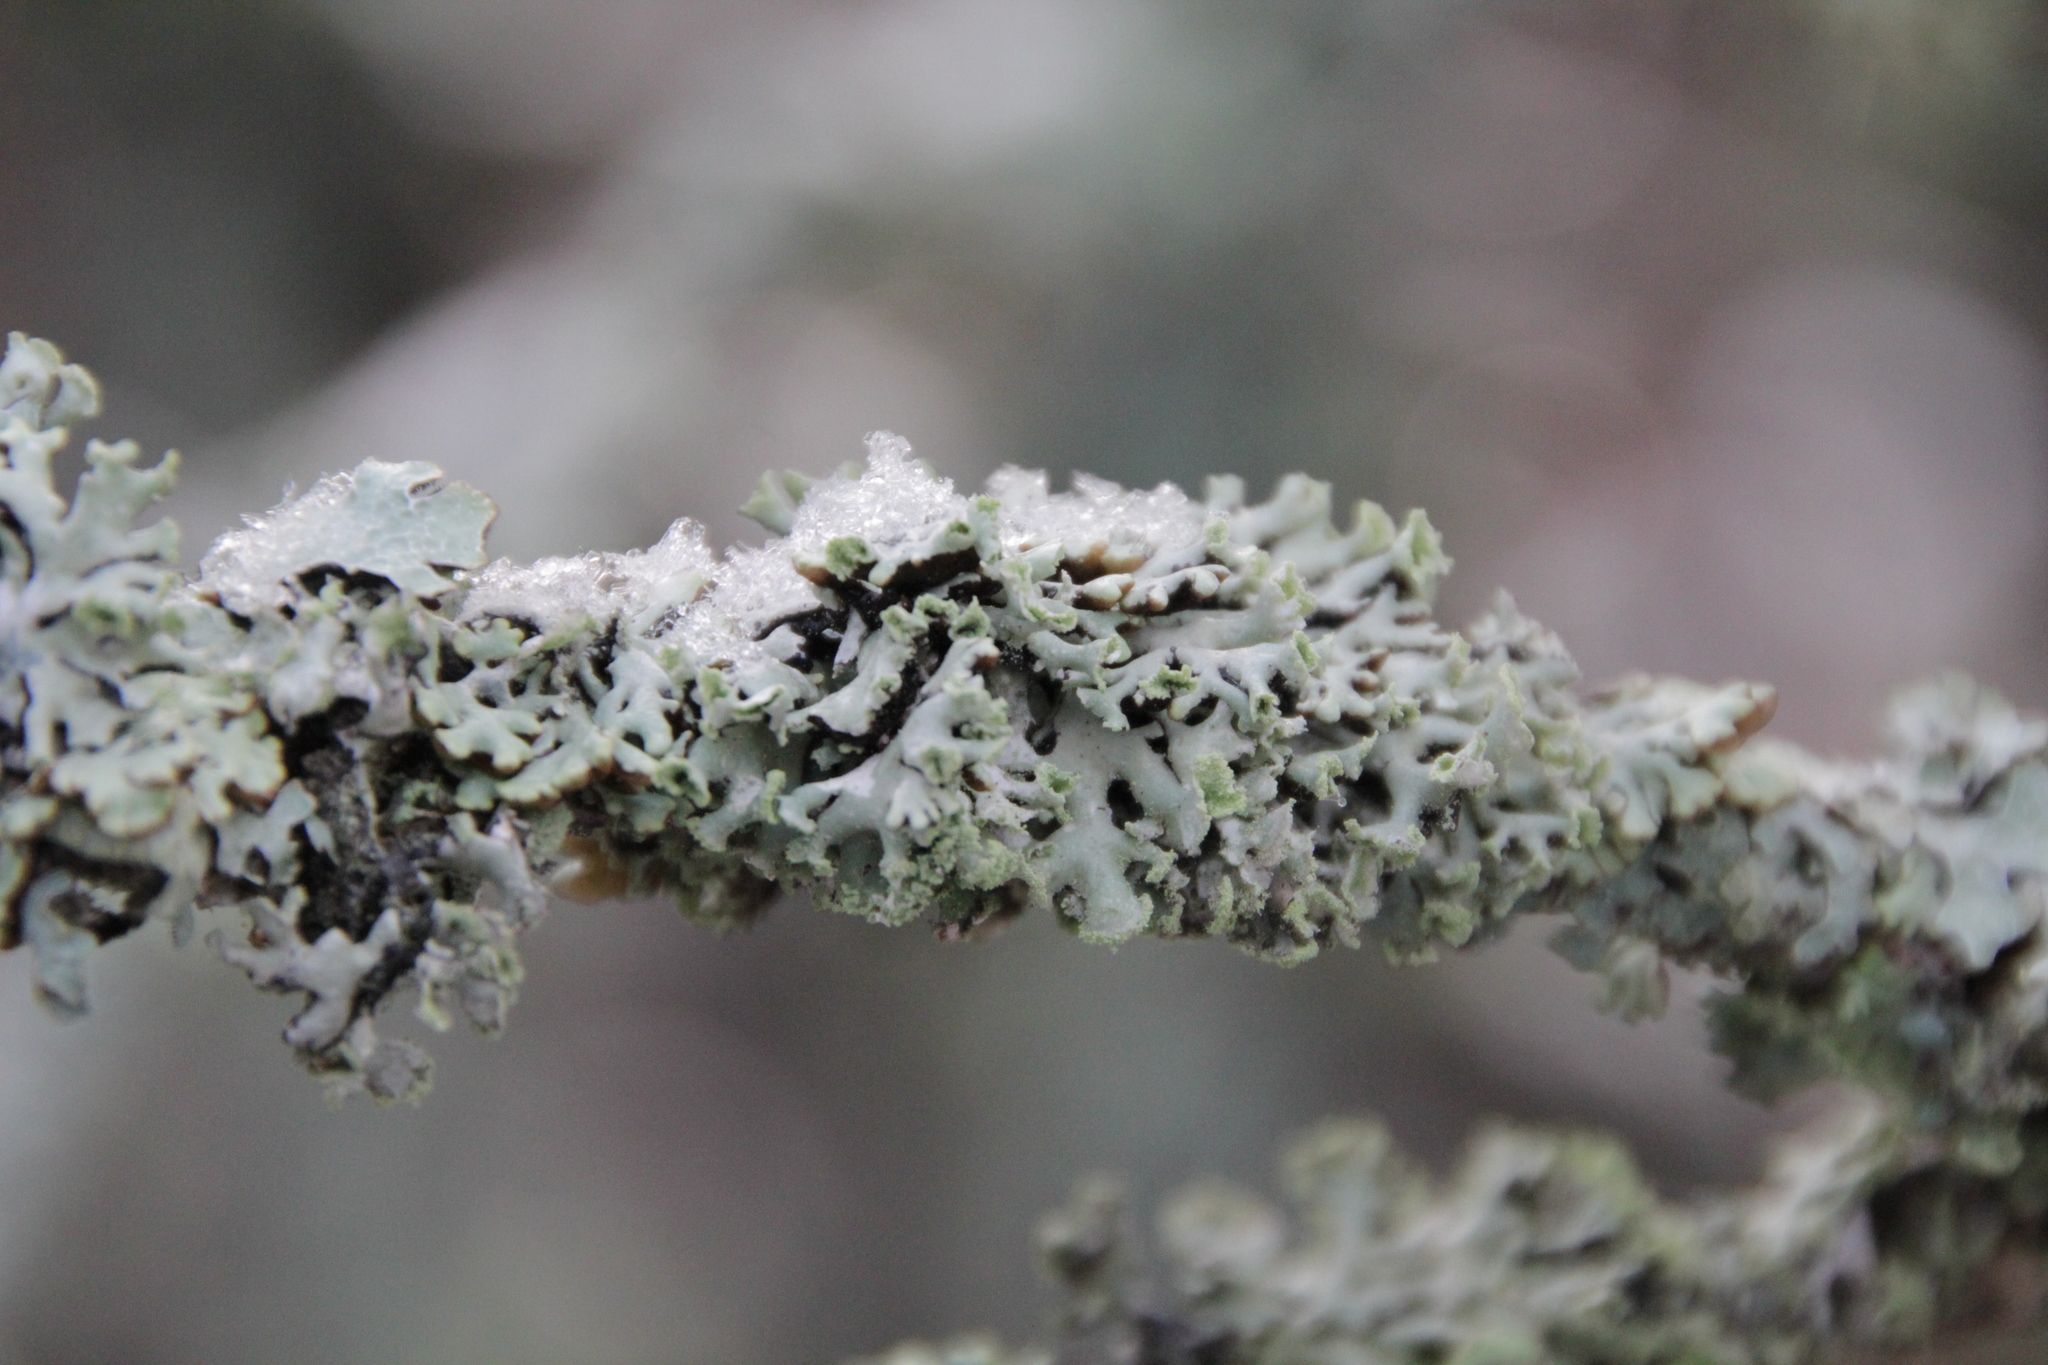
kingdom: Fungi
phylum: Ascomycota
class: Lecanoromycetes
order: Lecanorales
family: Parmeliaceae
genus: Hypogymnia
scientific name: Hypogymnia physodes
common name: Dark crottle
